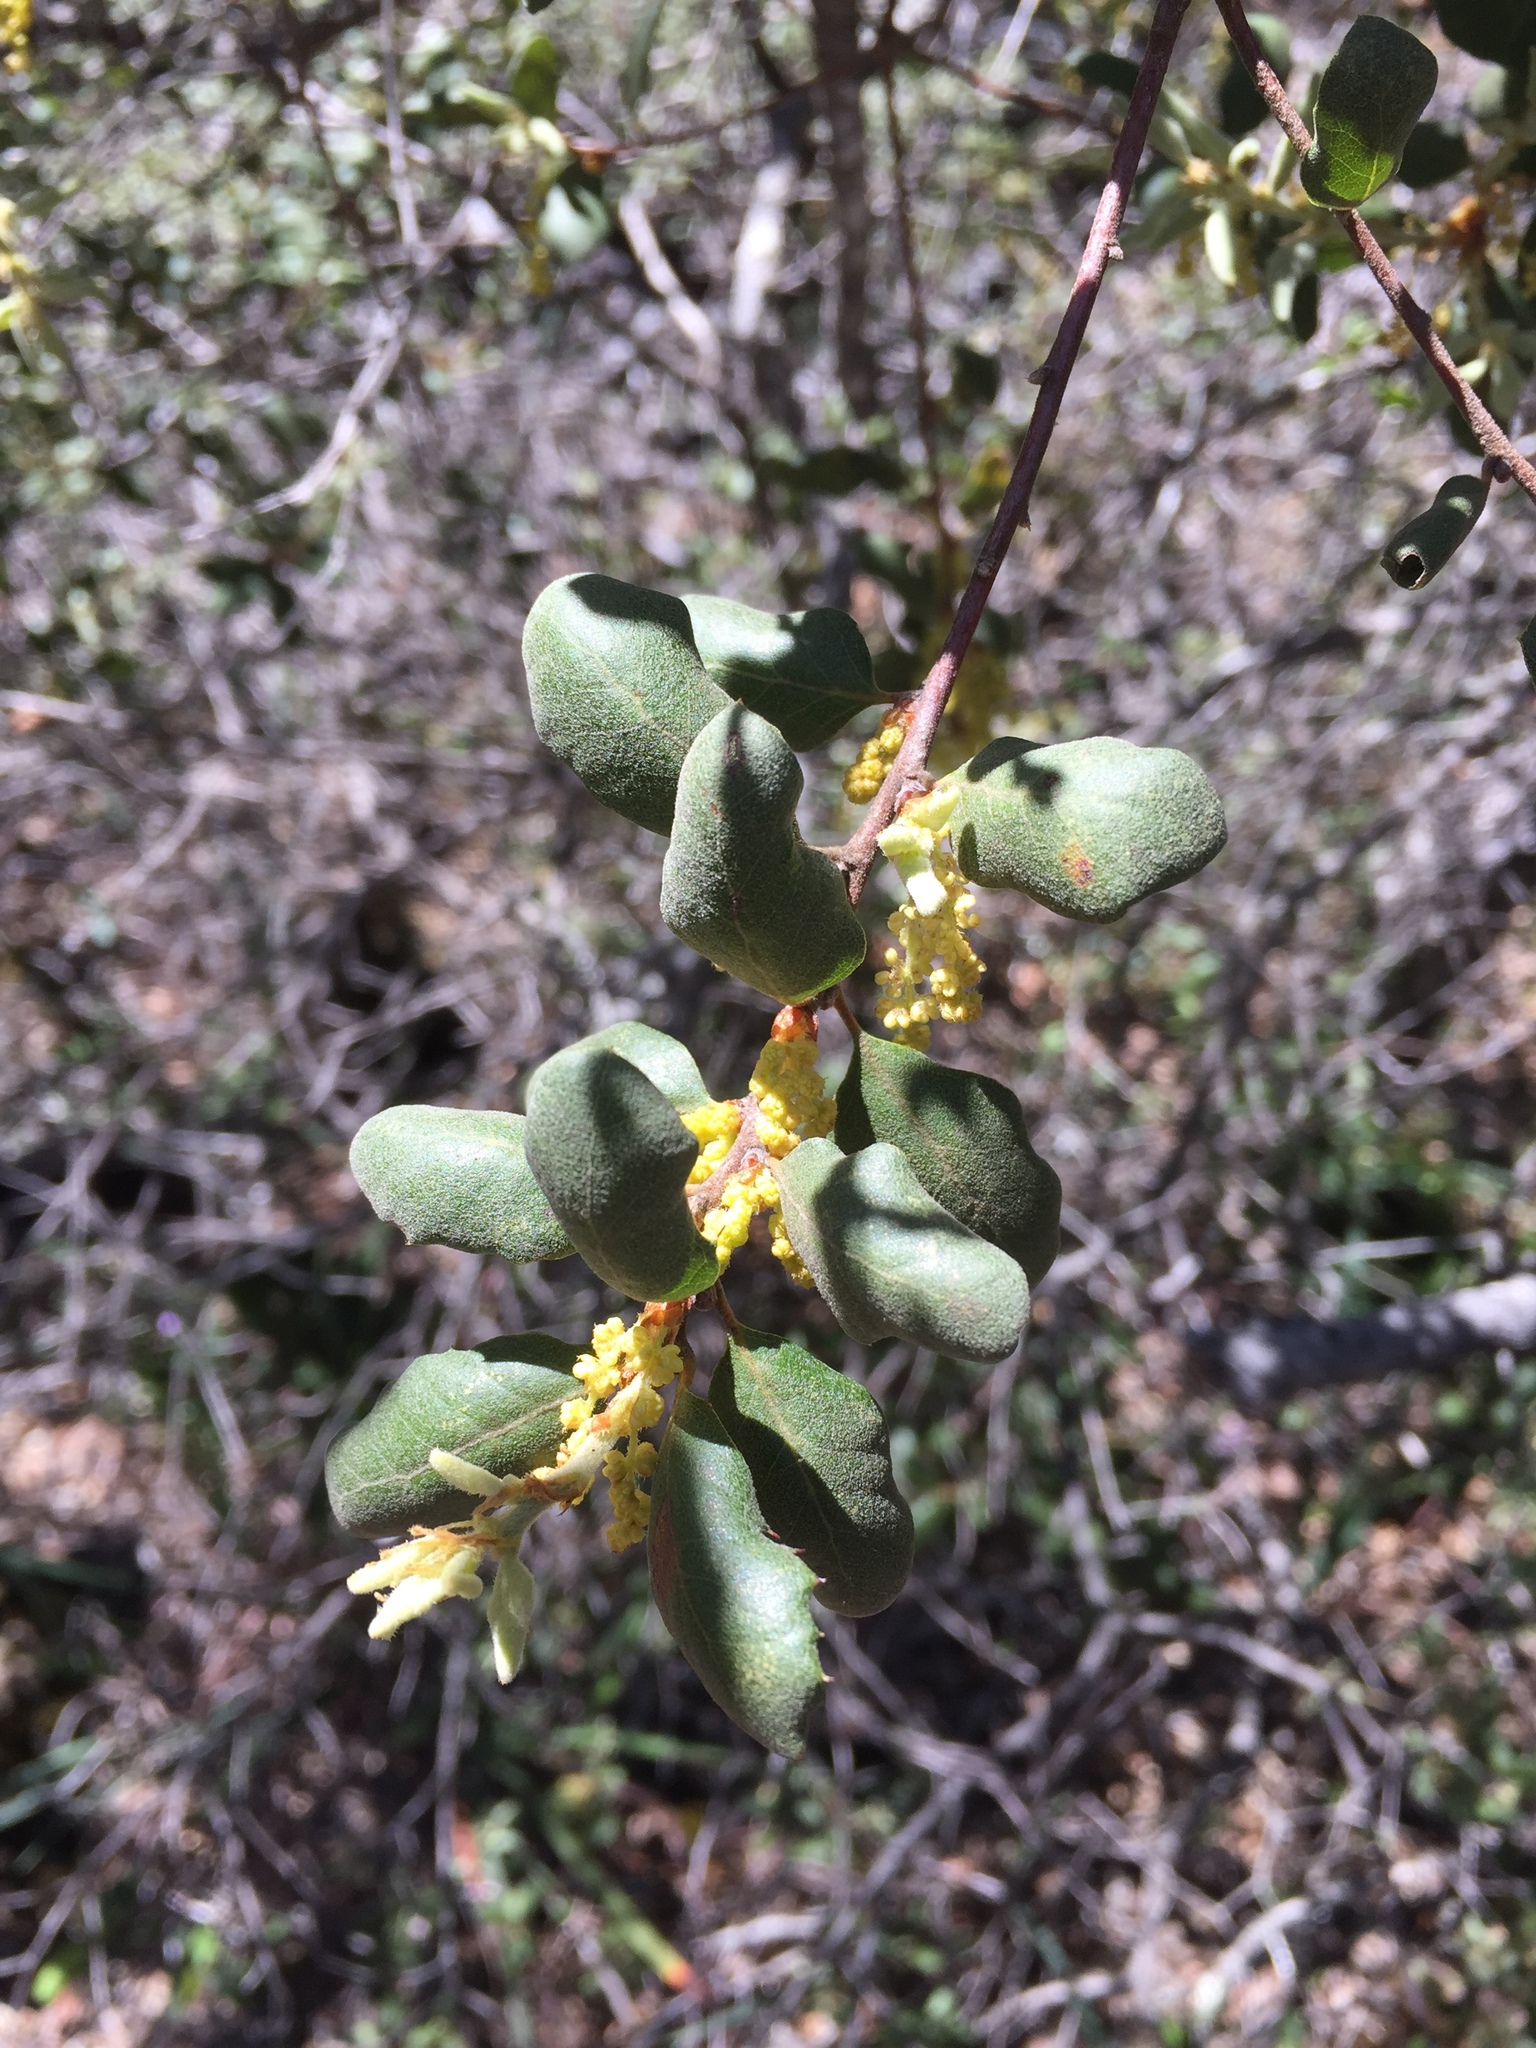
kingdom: Plantae
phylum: Tracheophyta
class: Magnoliopsida
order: Fagales
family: Fagaceae
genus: Quercus
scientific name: Quercus durata
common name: Leather oak
